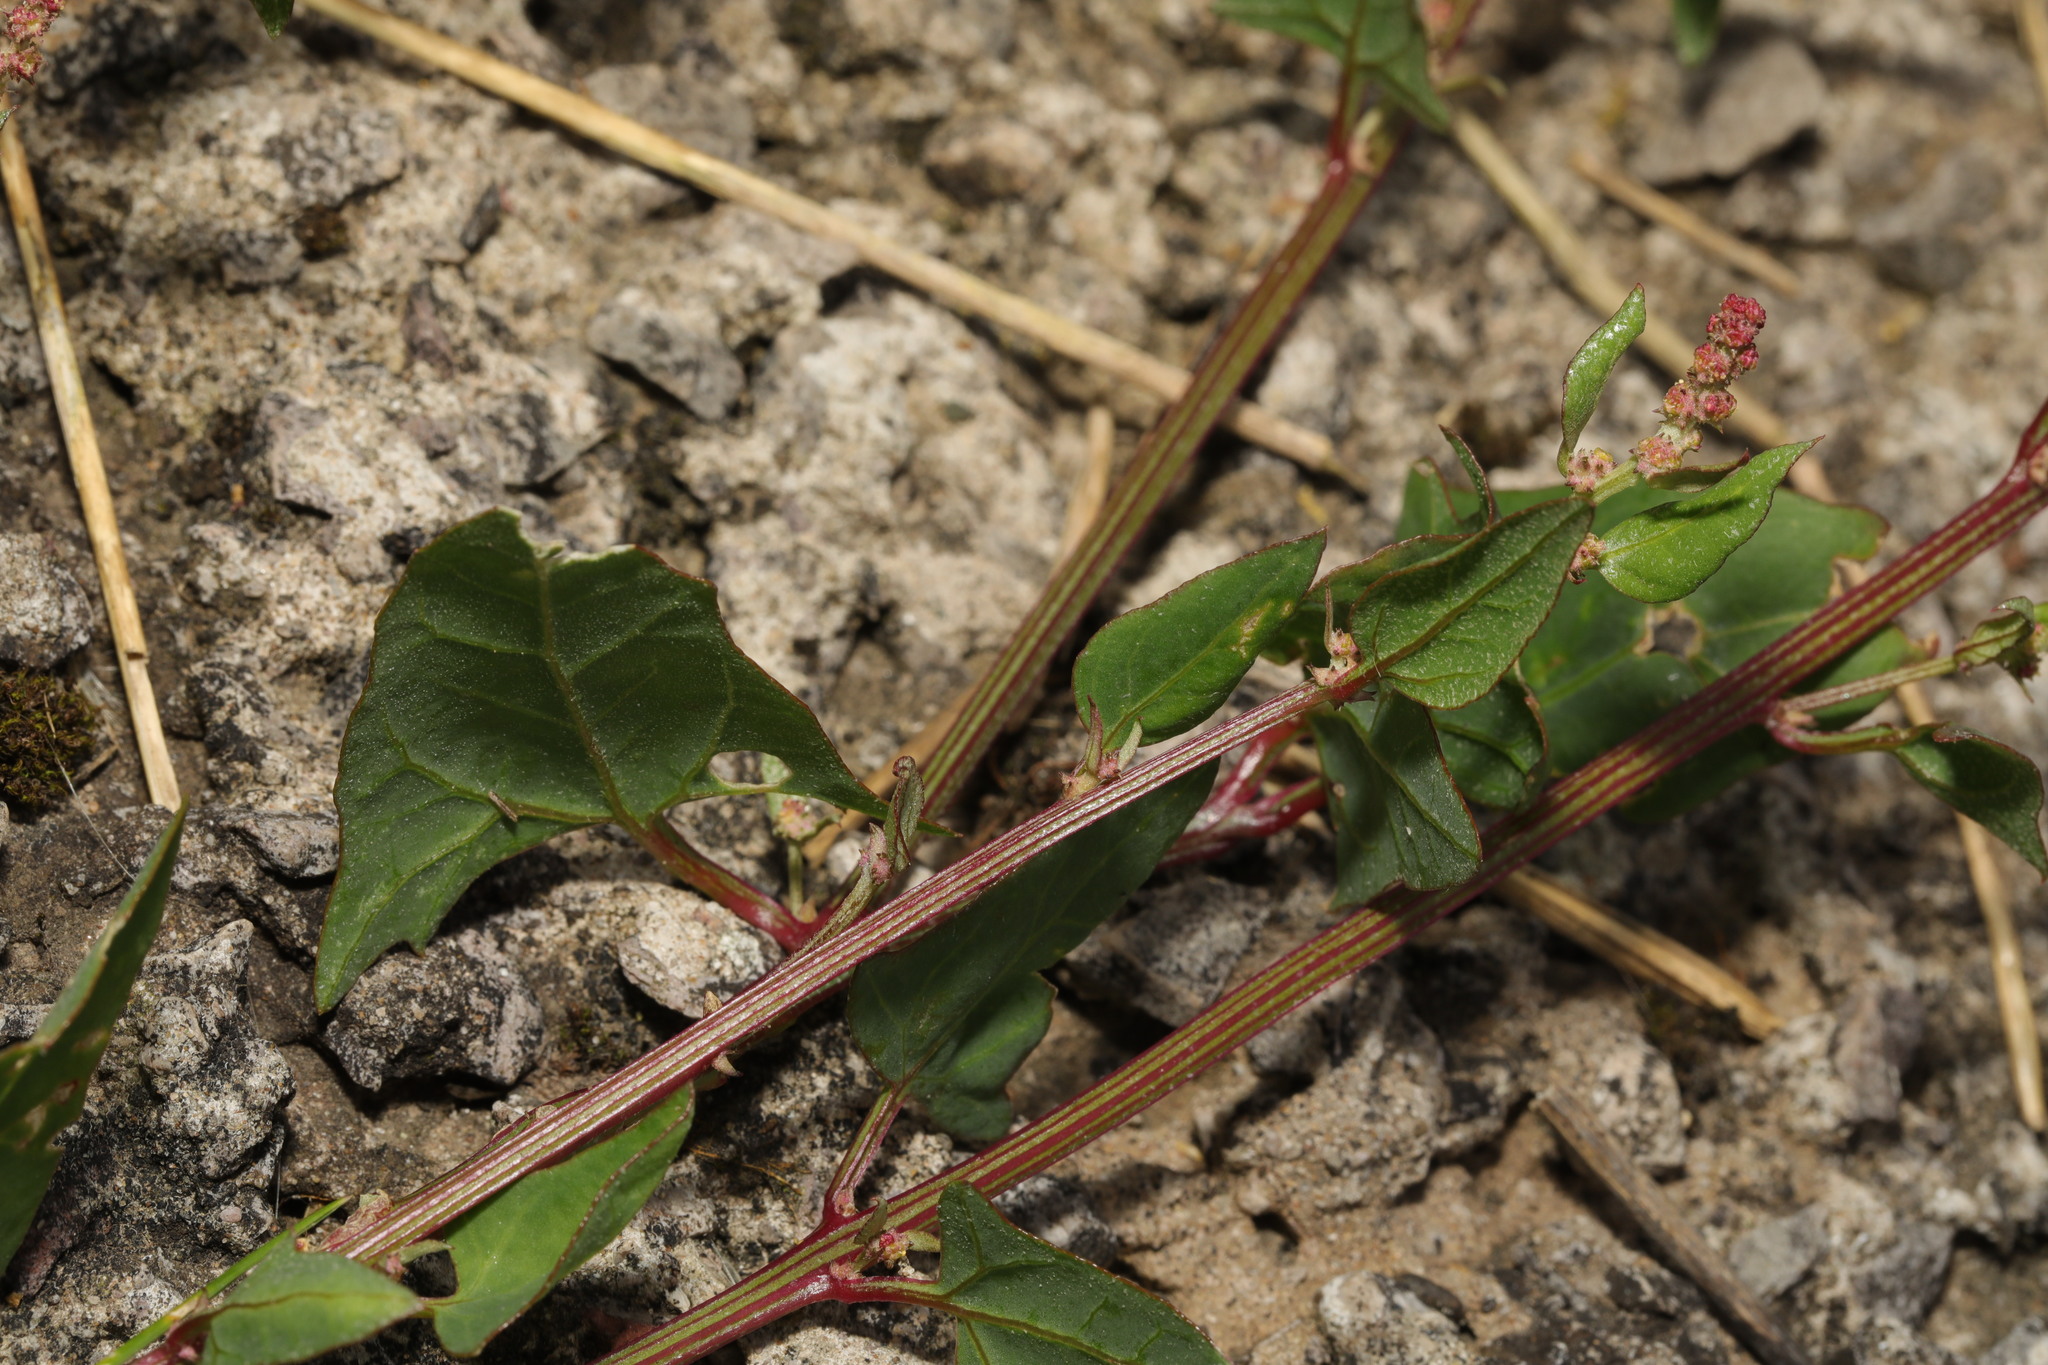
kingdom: Plantae
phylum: Tracheophyta
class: Magnoliopsida
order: Caryophyllales
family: Amaranthaceae
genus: Atriplex
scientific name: Atriplex prostrata
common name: Spear-leaved orache
